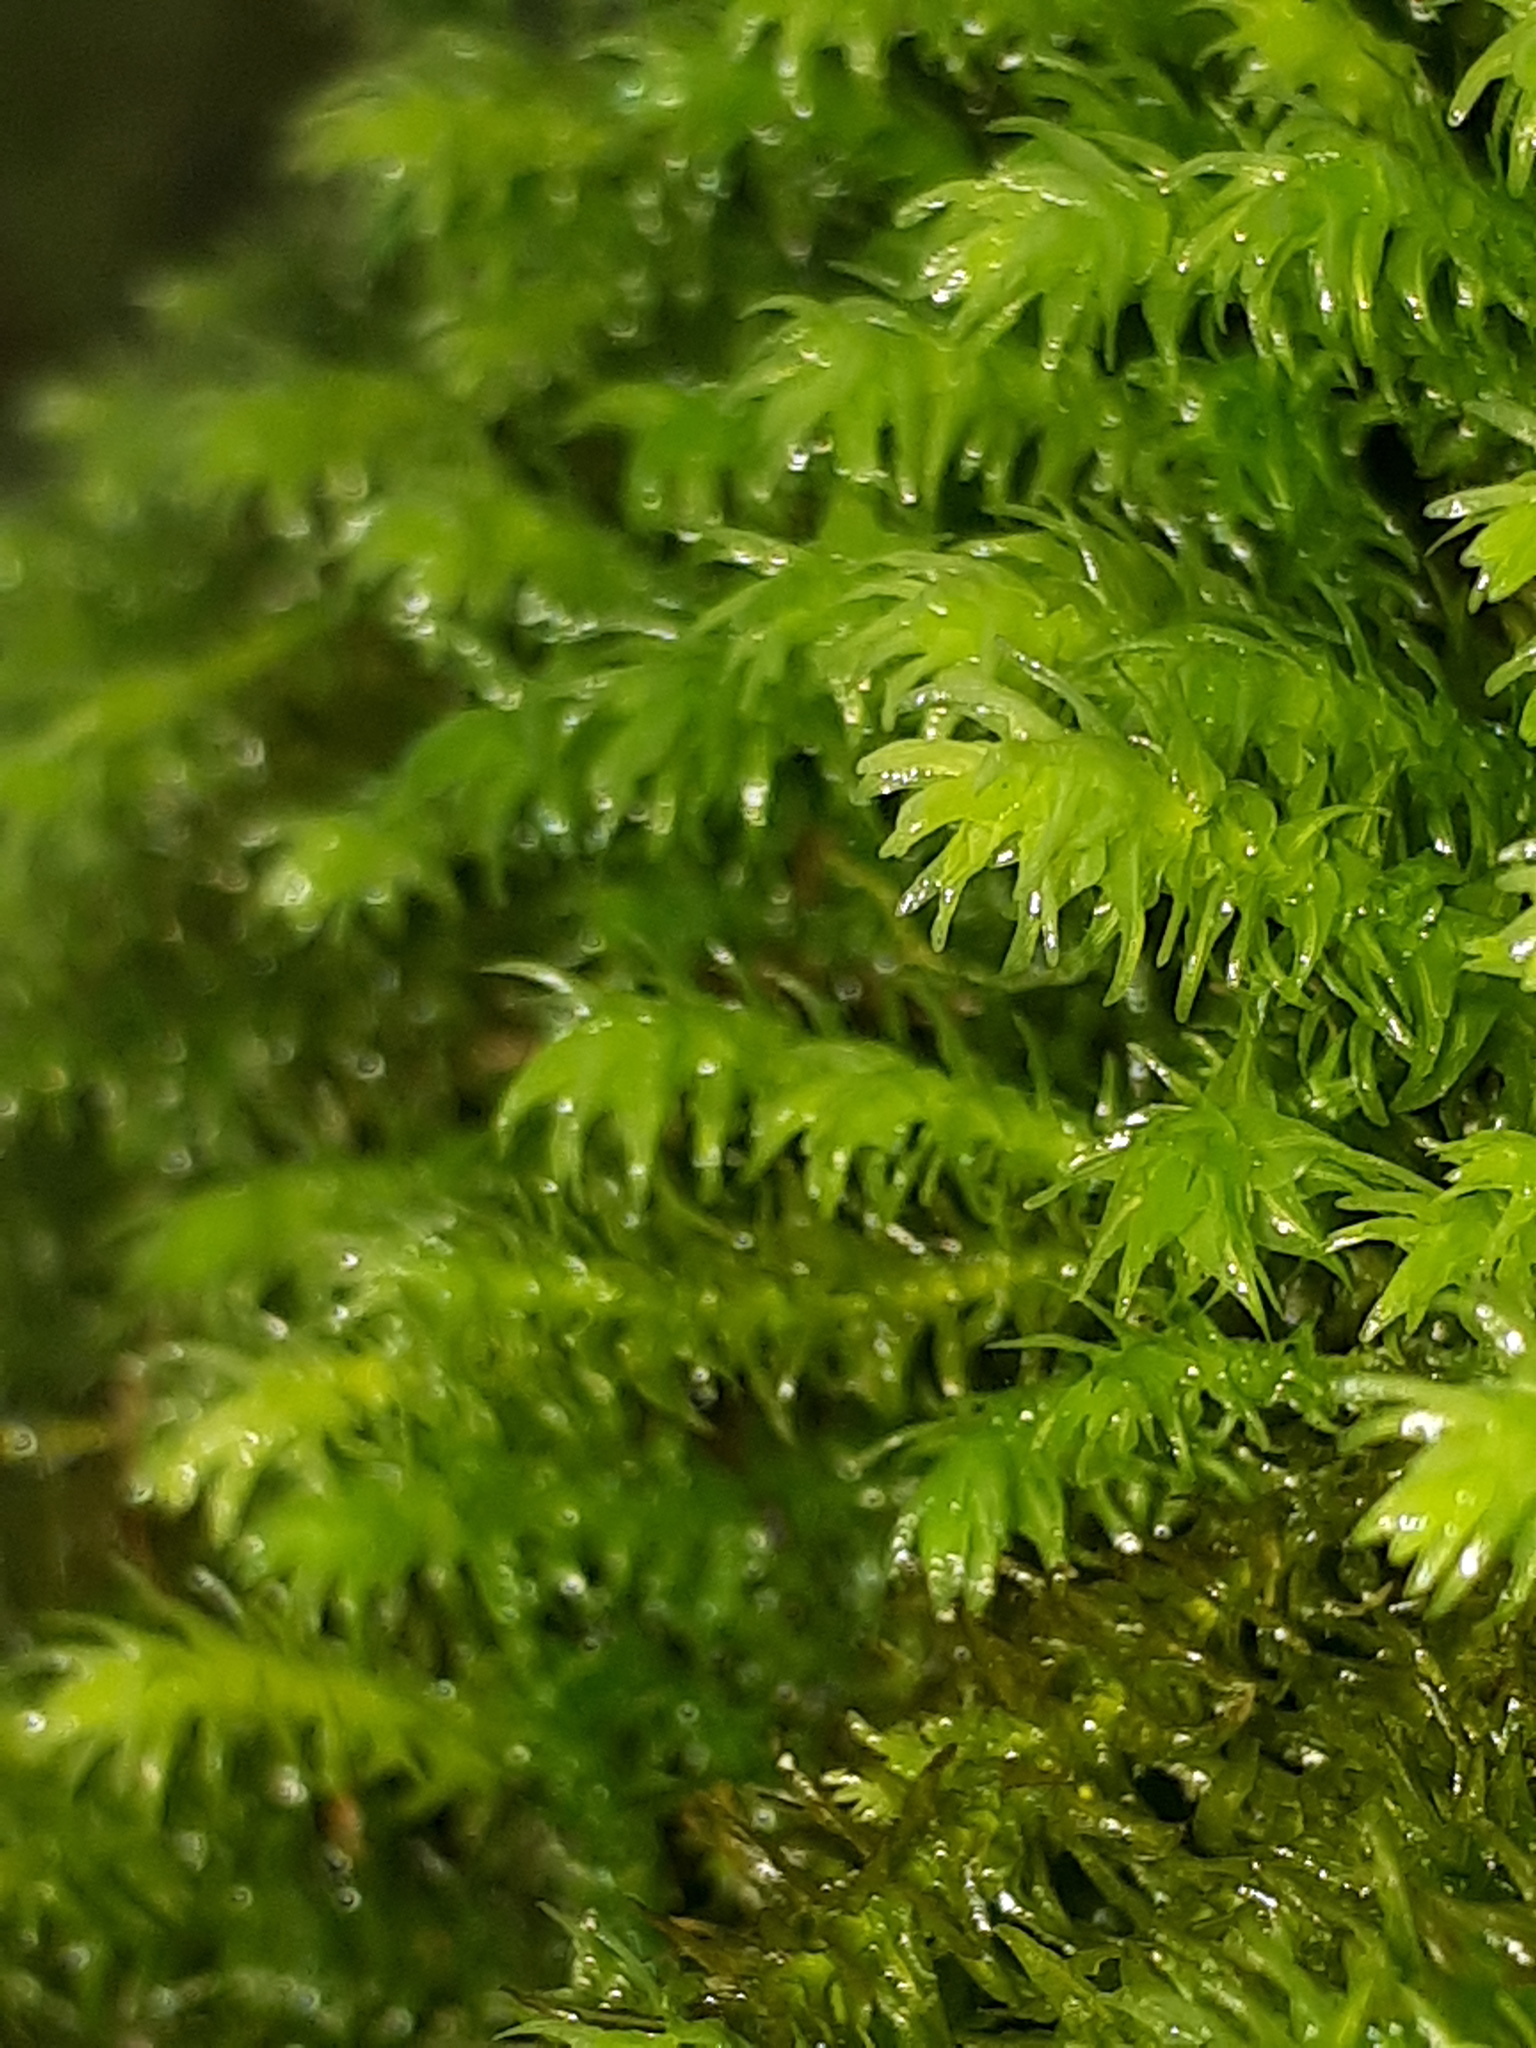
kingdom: Plantae
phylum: Bryophyta
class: Bryopsida
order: Hypnales
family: Anomodontaceae
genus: Anomodon
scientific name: Anomodon viticulosus
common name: Tall anomodon
